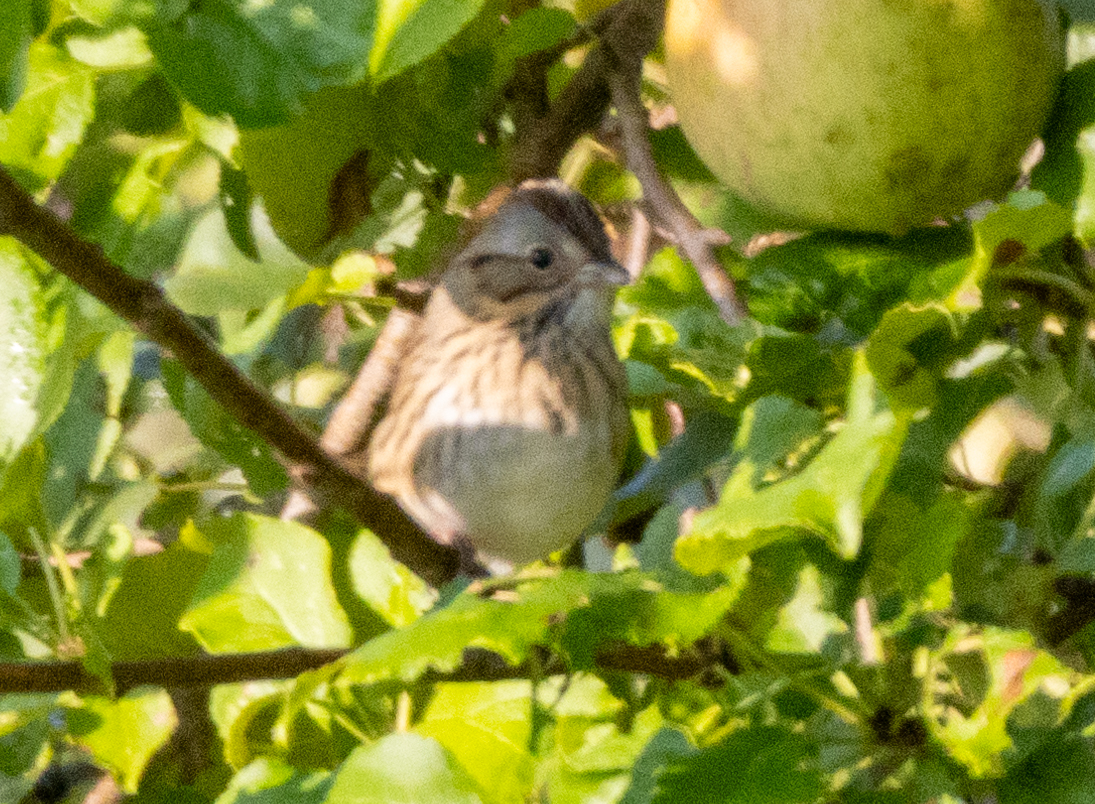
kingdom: Animalia
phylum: Chordata
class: Aves
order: Passeriformes
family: Passerellidae
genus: Melospiza
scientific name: Melospiza lincolnii
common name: Lincoln's sparrow
